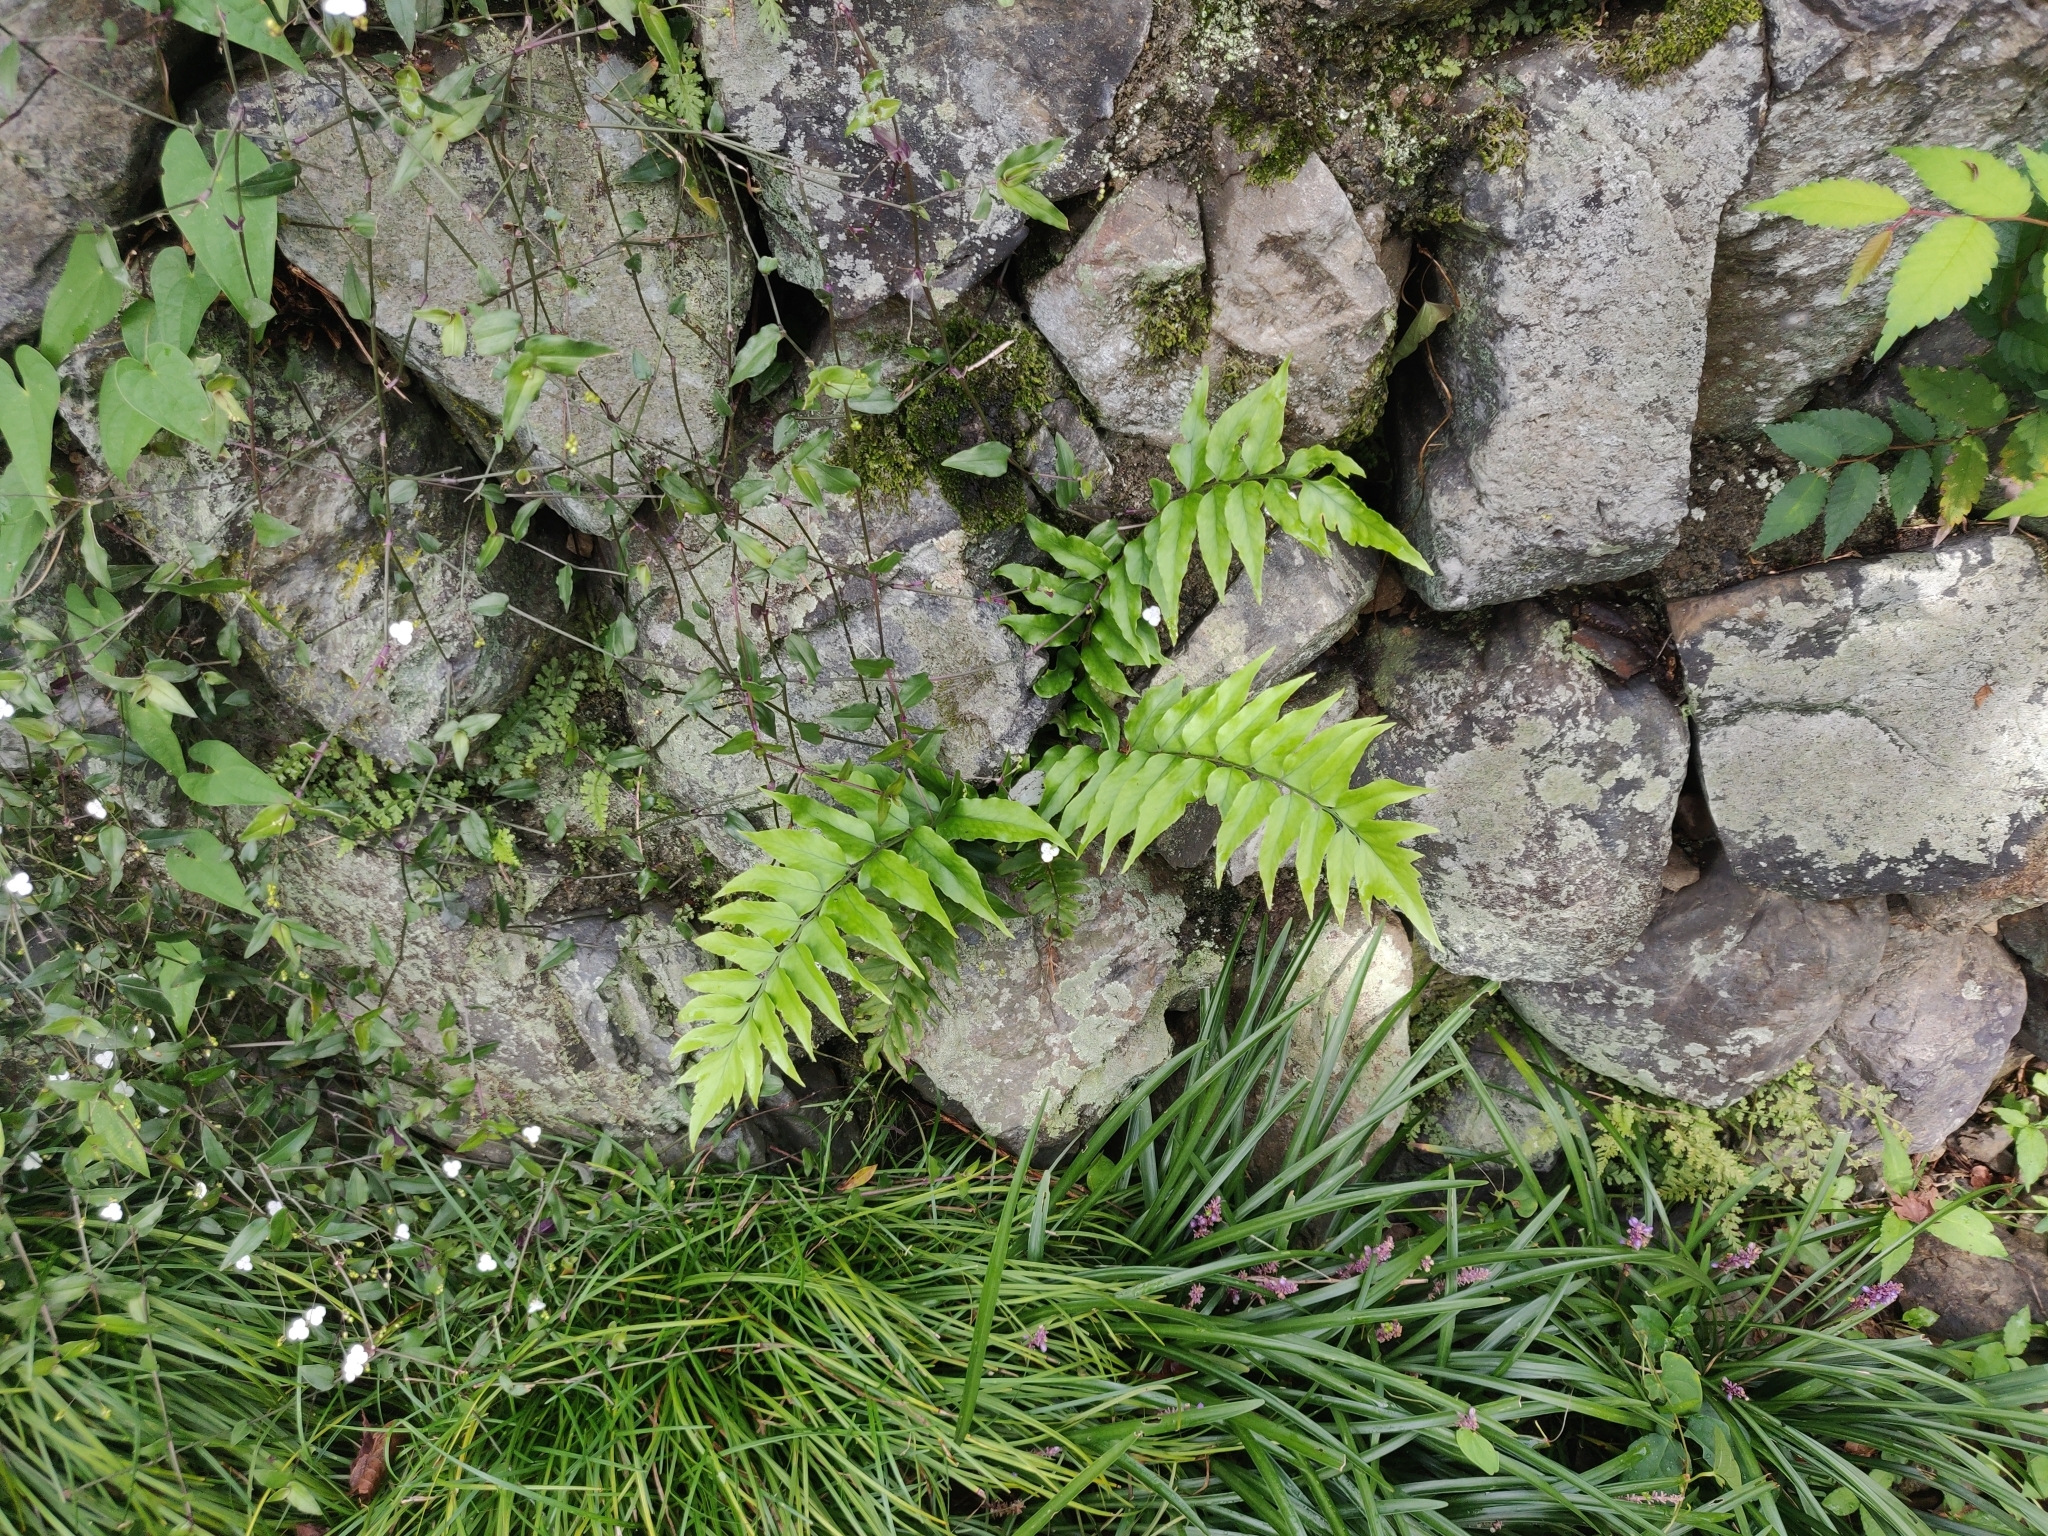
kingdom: Plantae
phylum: Tracheophyta
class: Polypodiopsida
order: Polypodiales
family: Dryopteridaceae
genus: Cyrtomium
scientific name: Cyrtomium fortunei
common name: Asian netvein hollyfern
